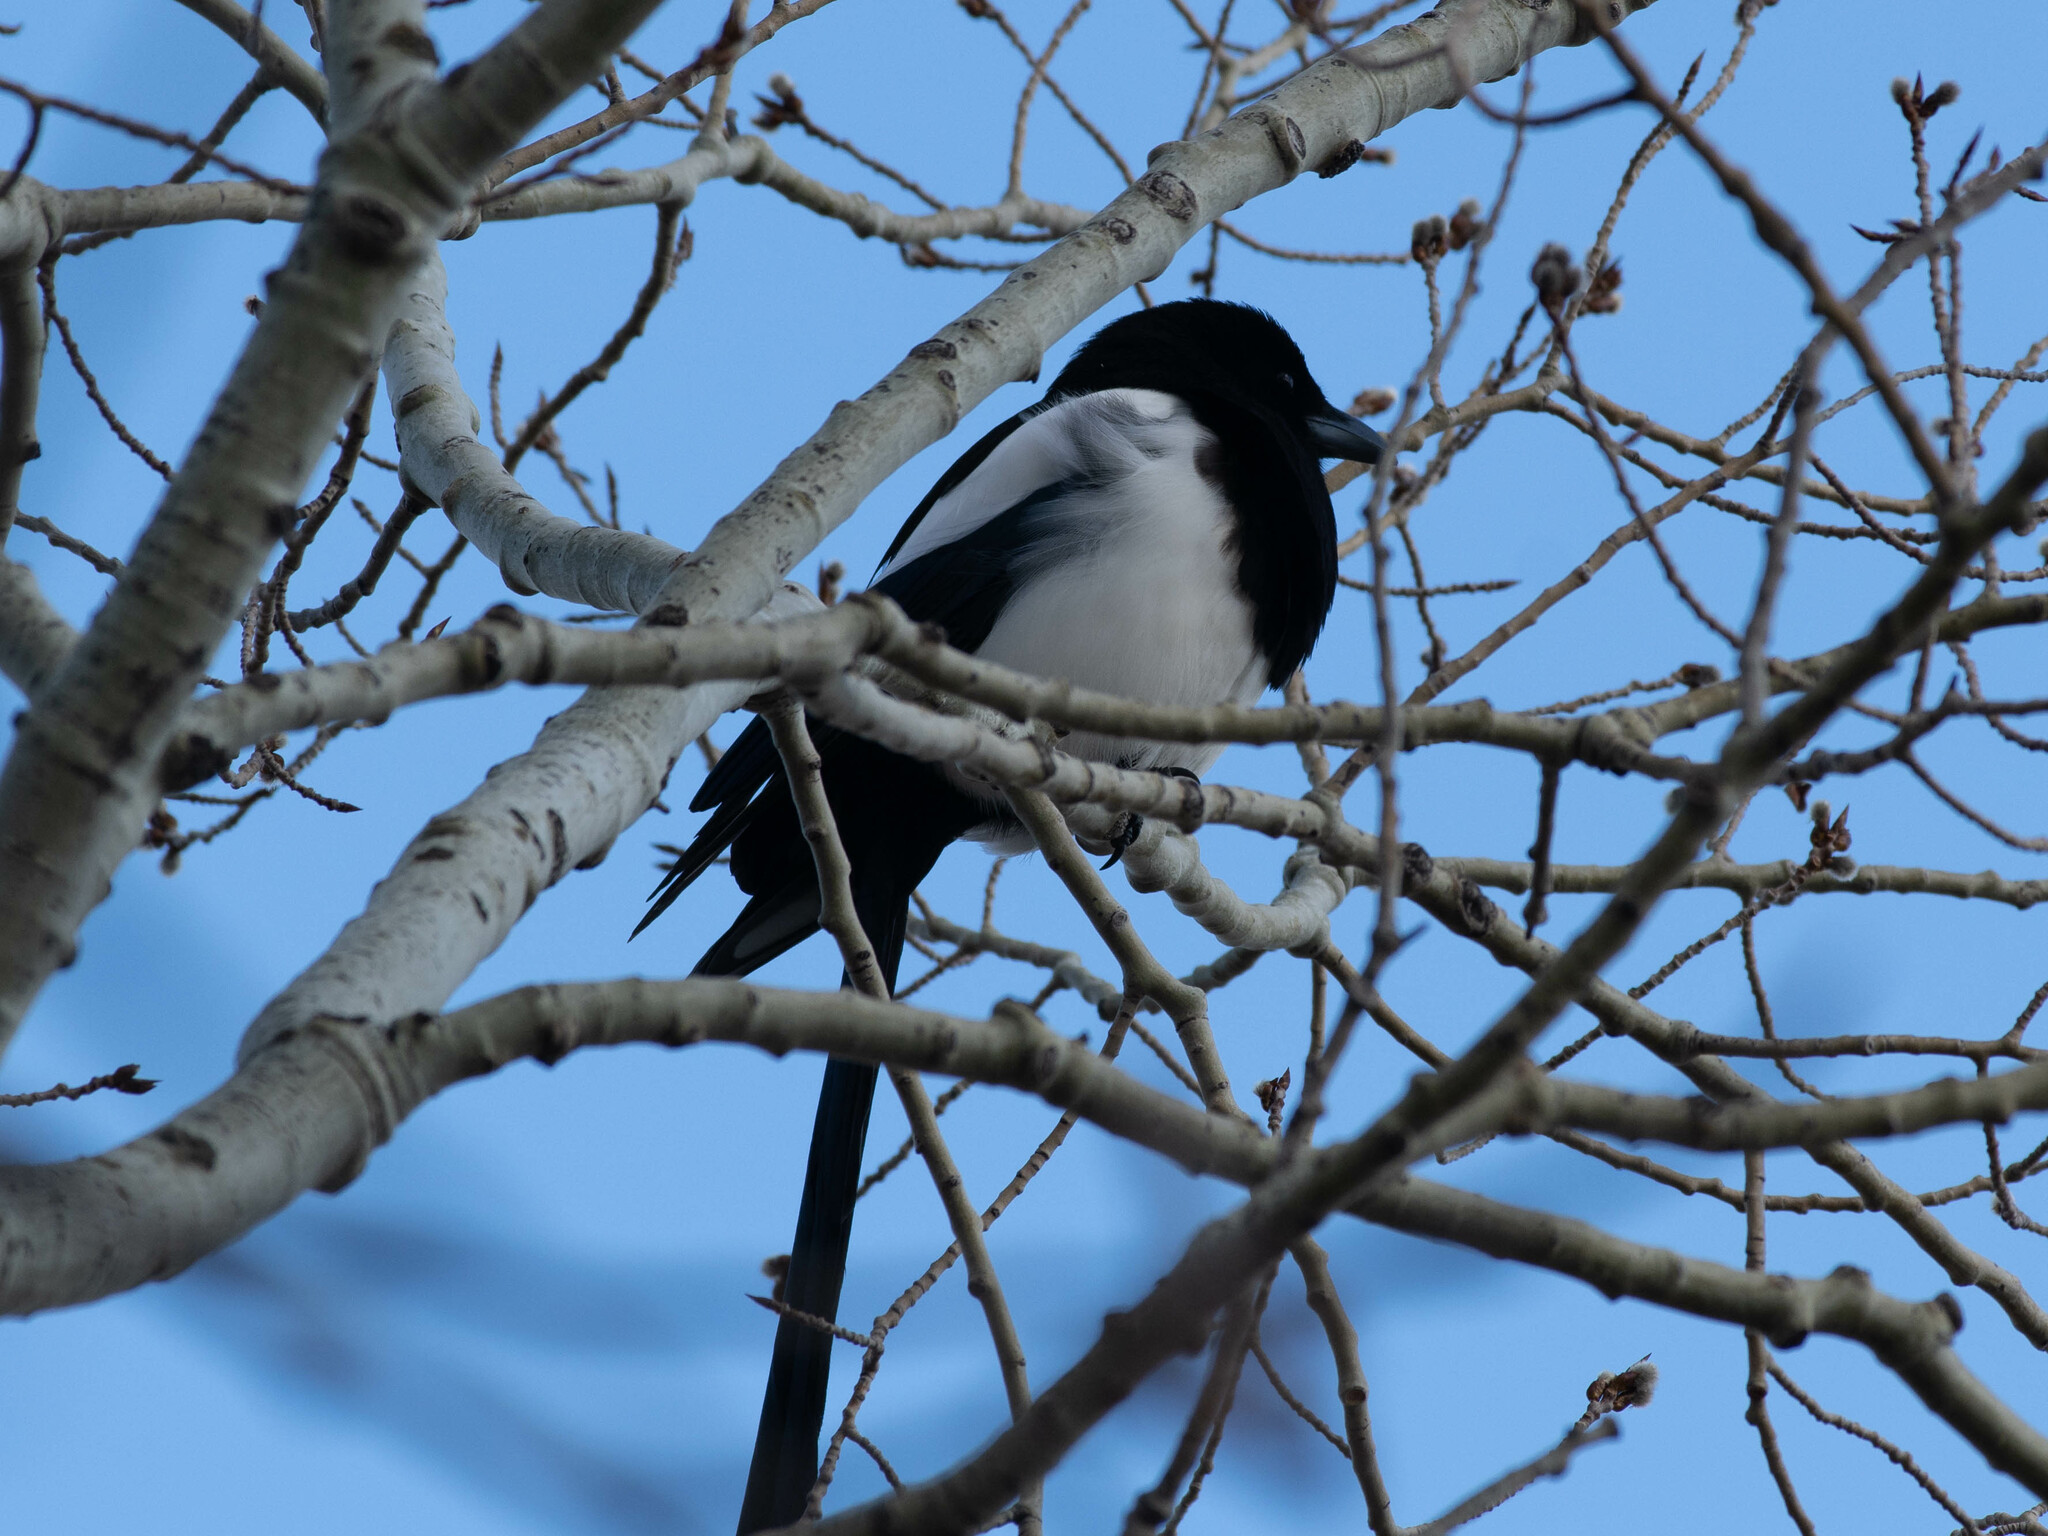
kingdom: Animalia
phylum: Chordata
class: Aves
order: Passeriformes
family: Corvidae
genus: Pica
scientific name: Pica hudsonia
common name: Black-billed magpie
